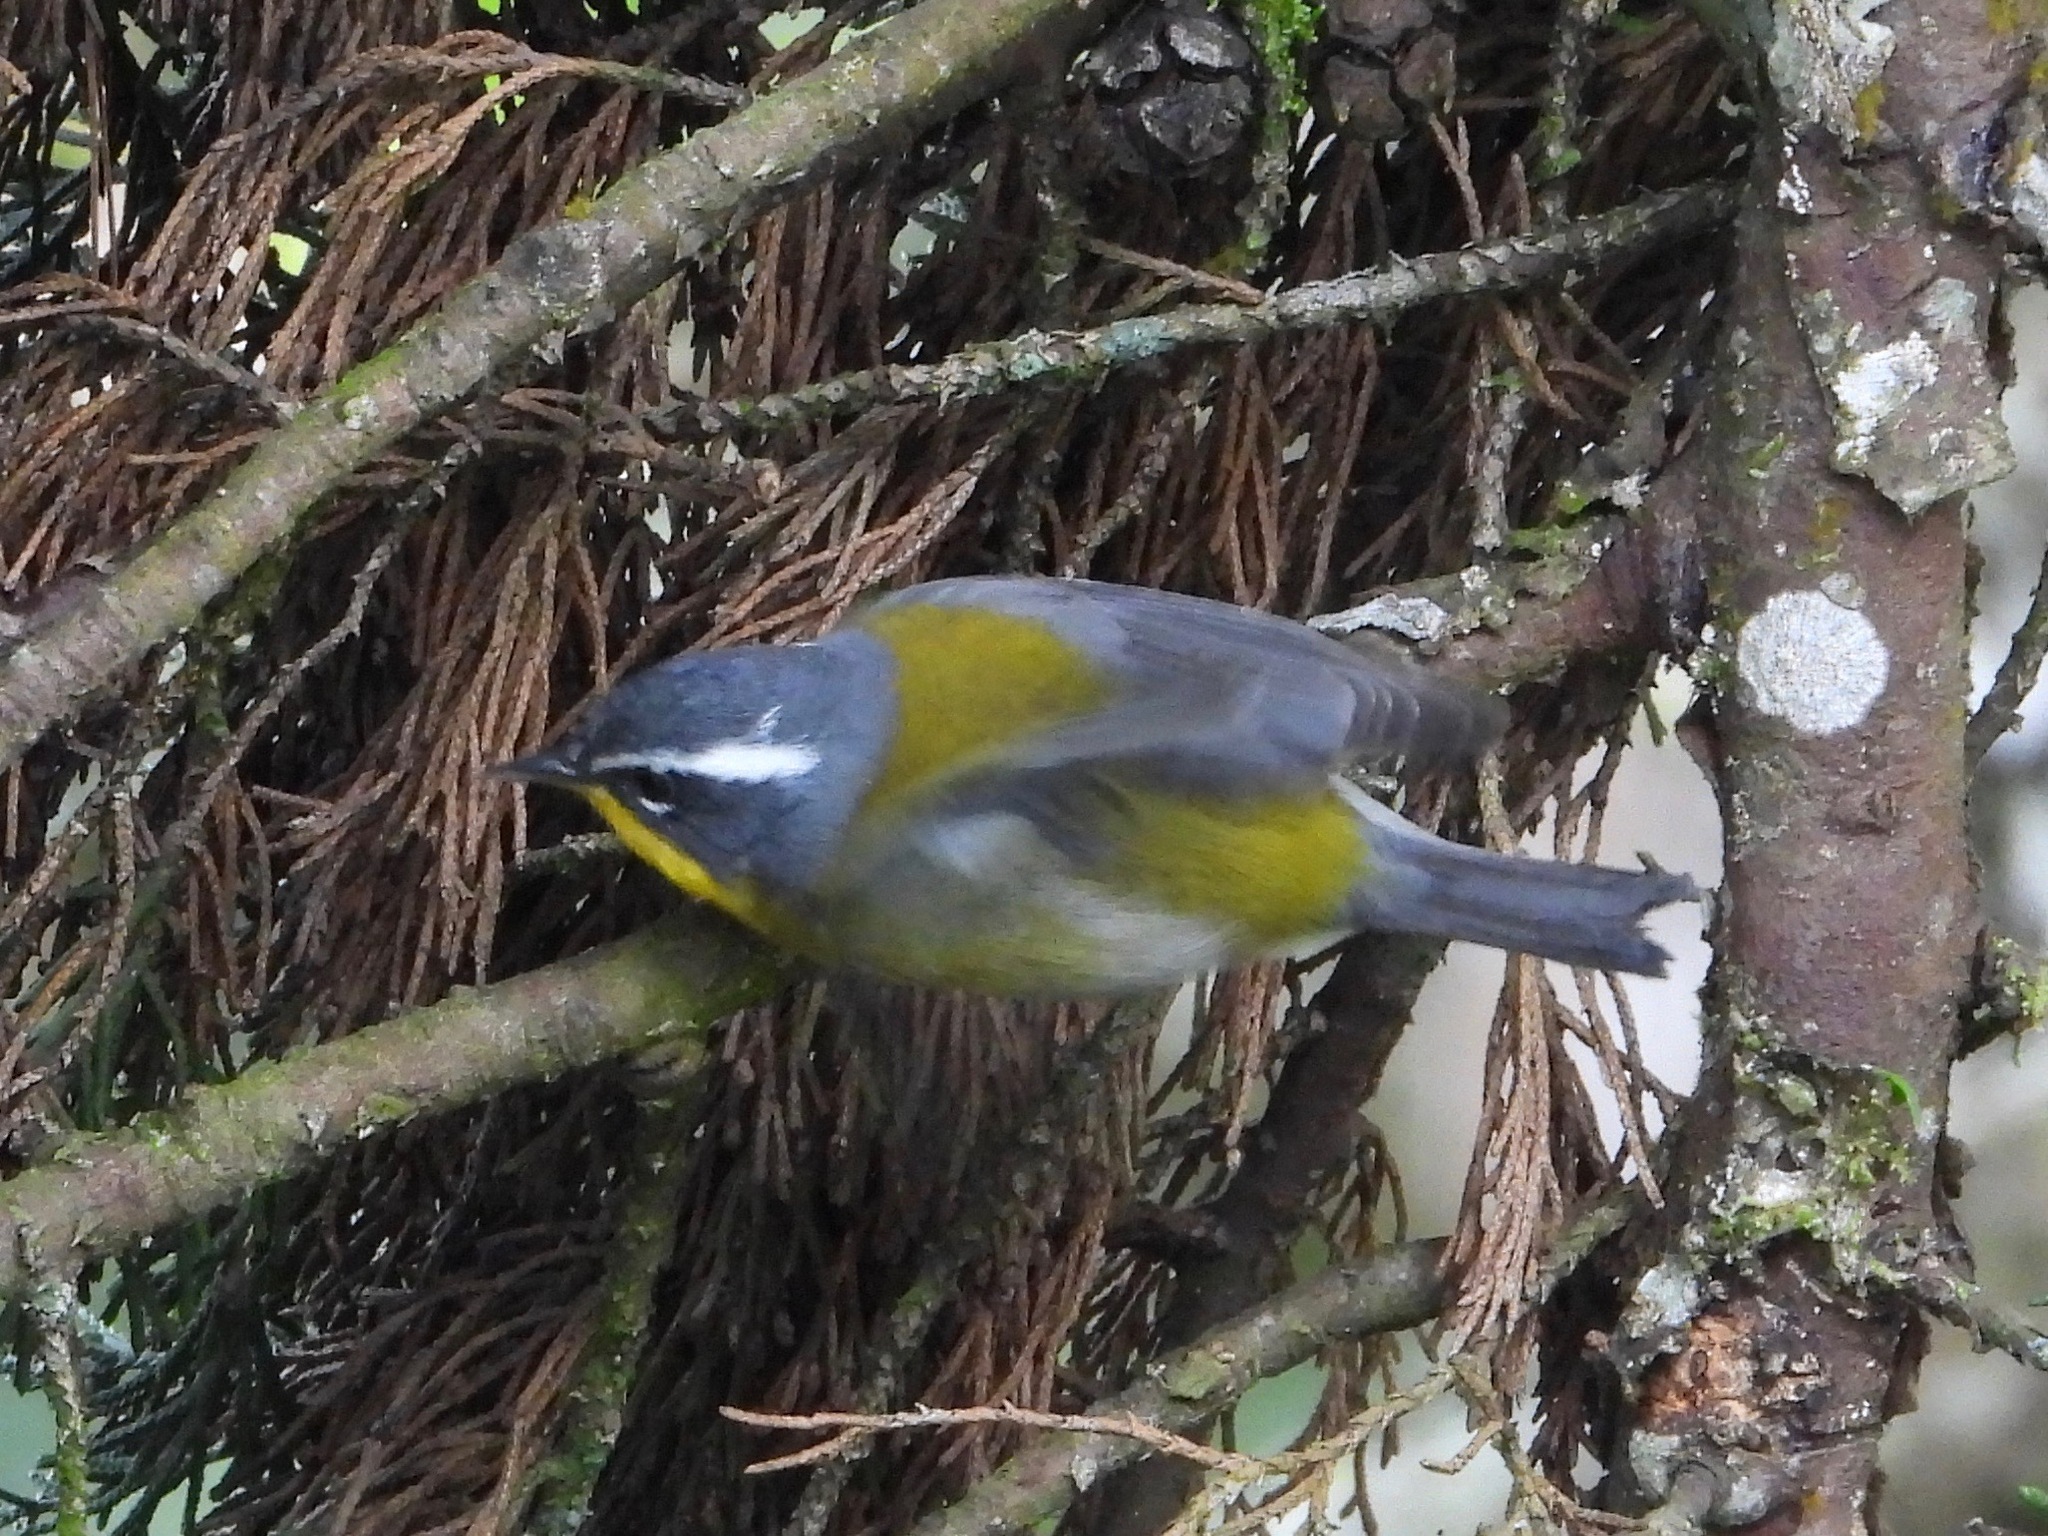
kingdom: Animalia
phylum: Chordata
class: Aves
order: Passeriformes
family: Parulidae
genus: Oreothlypis
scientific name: Oreothlypis superciliosa
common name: Crescent-chested warbler
